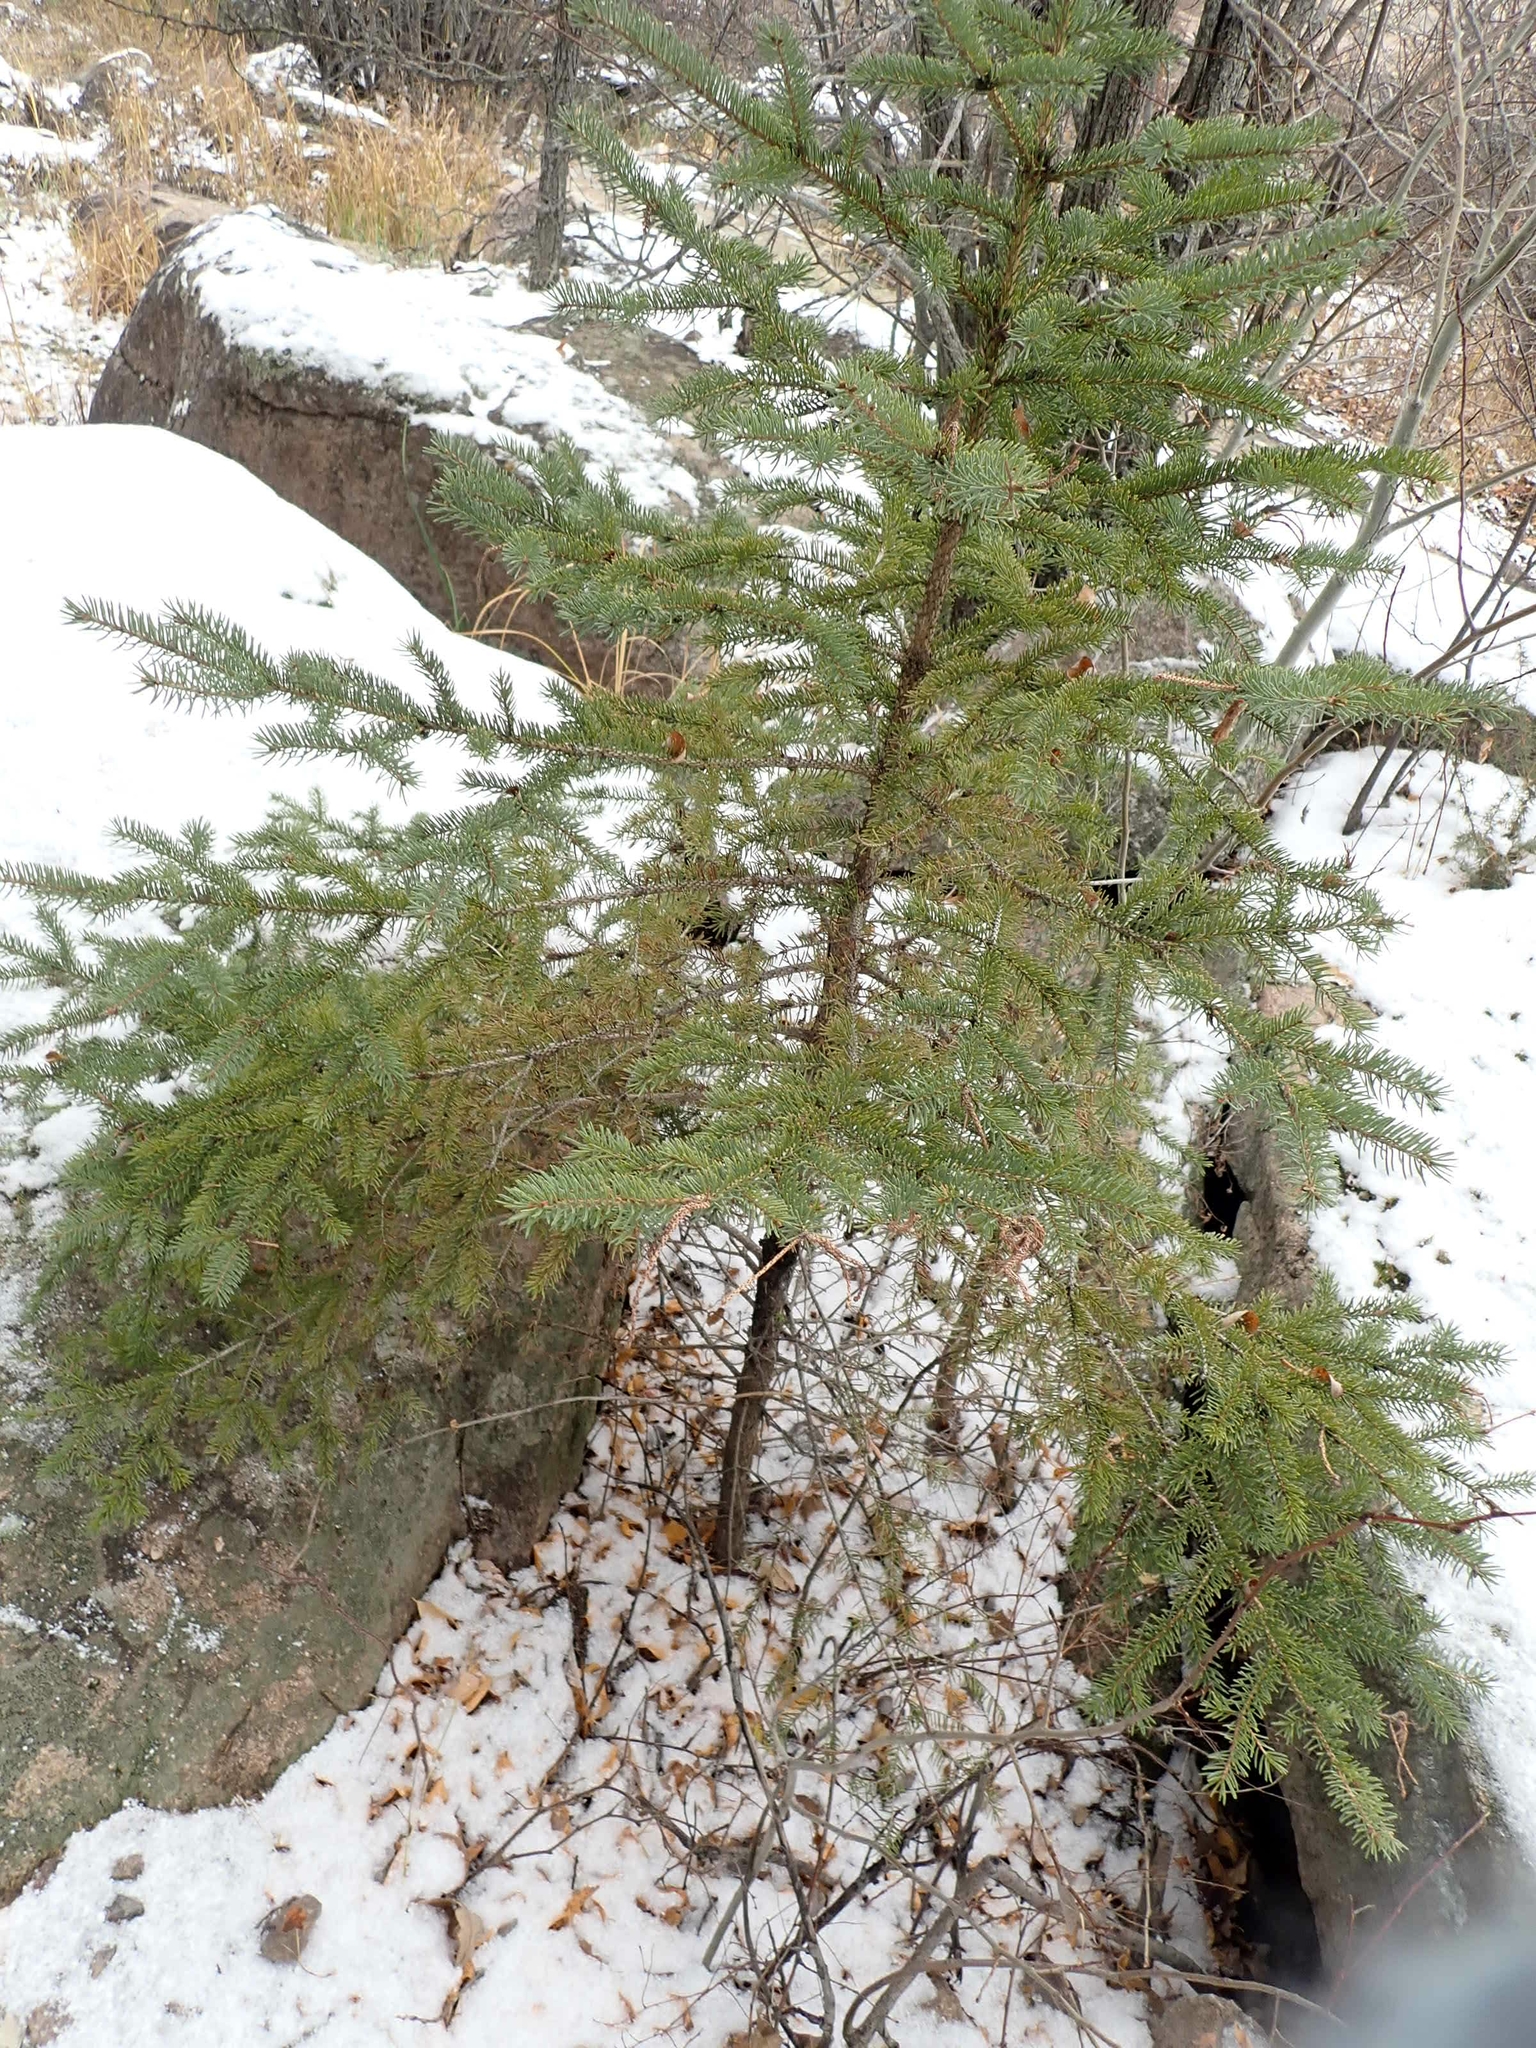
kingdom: Plantae
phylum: Tracheophyta
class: Pinopsida
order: Pinales
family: Pinaceae
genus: Picea
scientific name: Picea glauca
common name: White spruce
